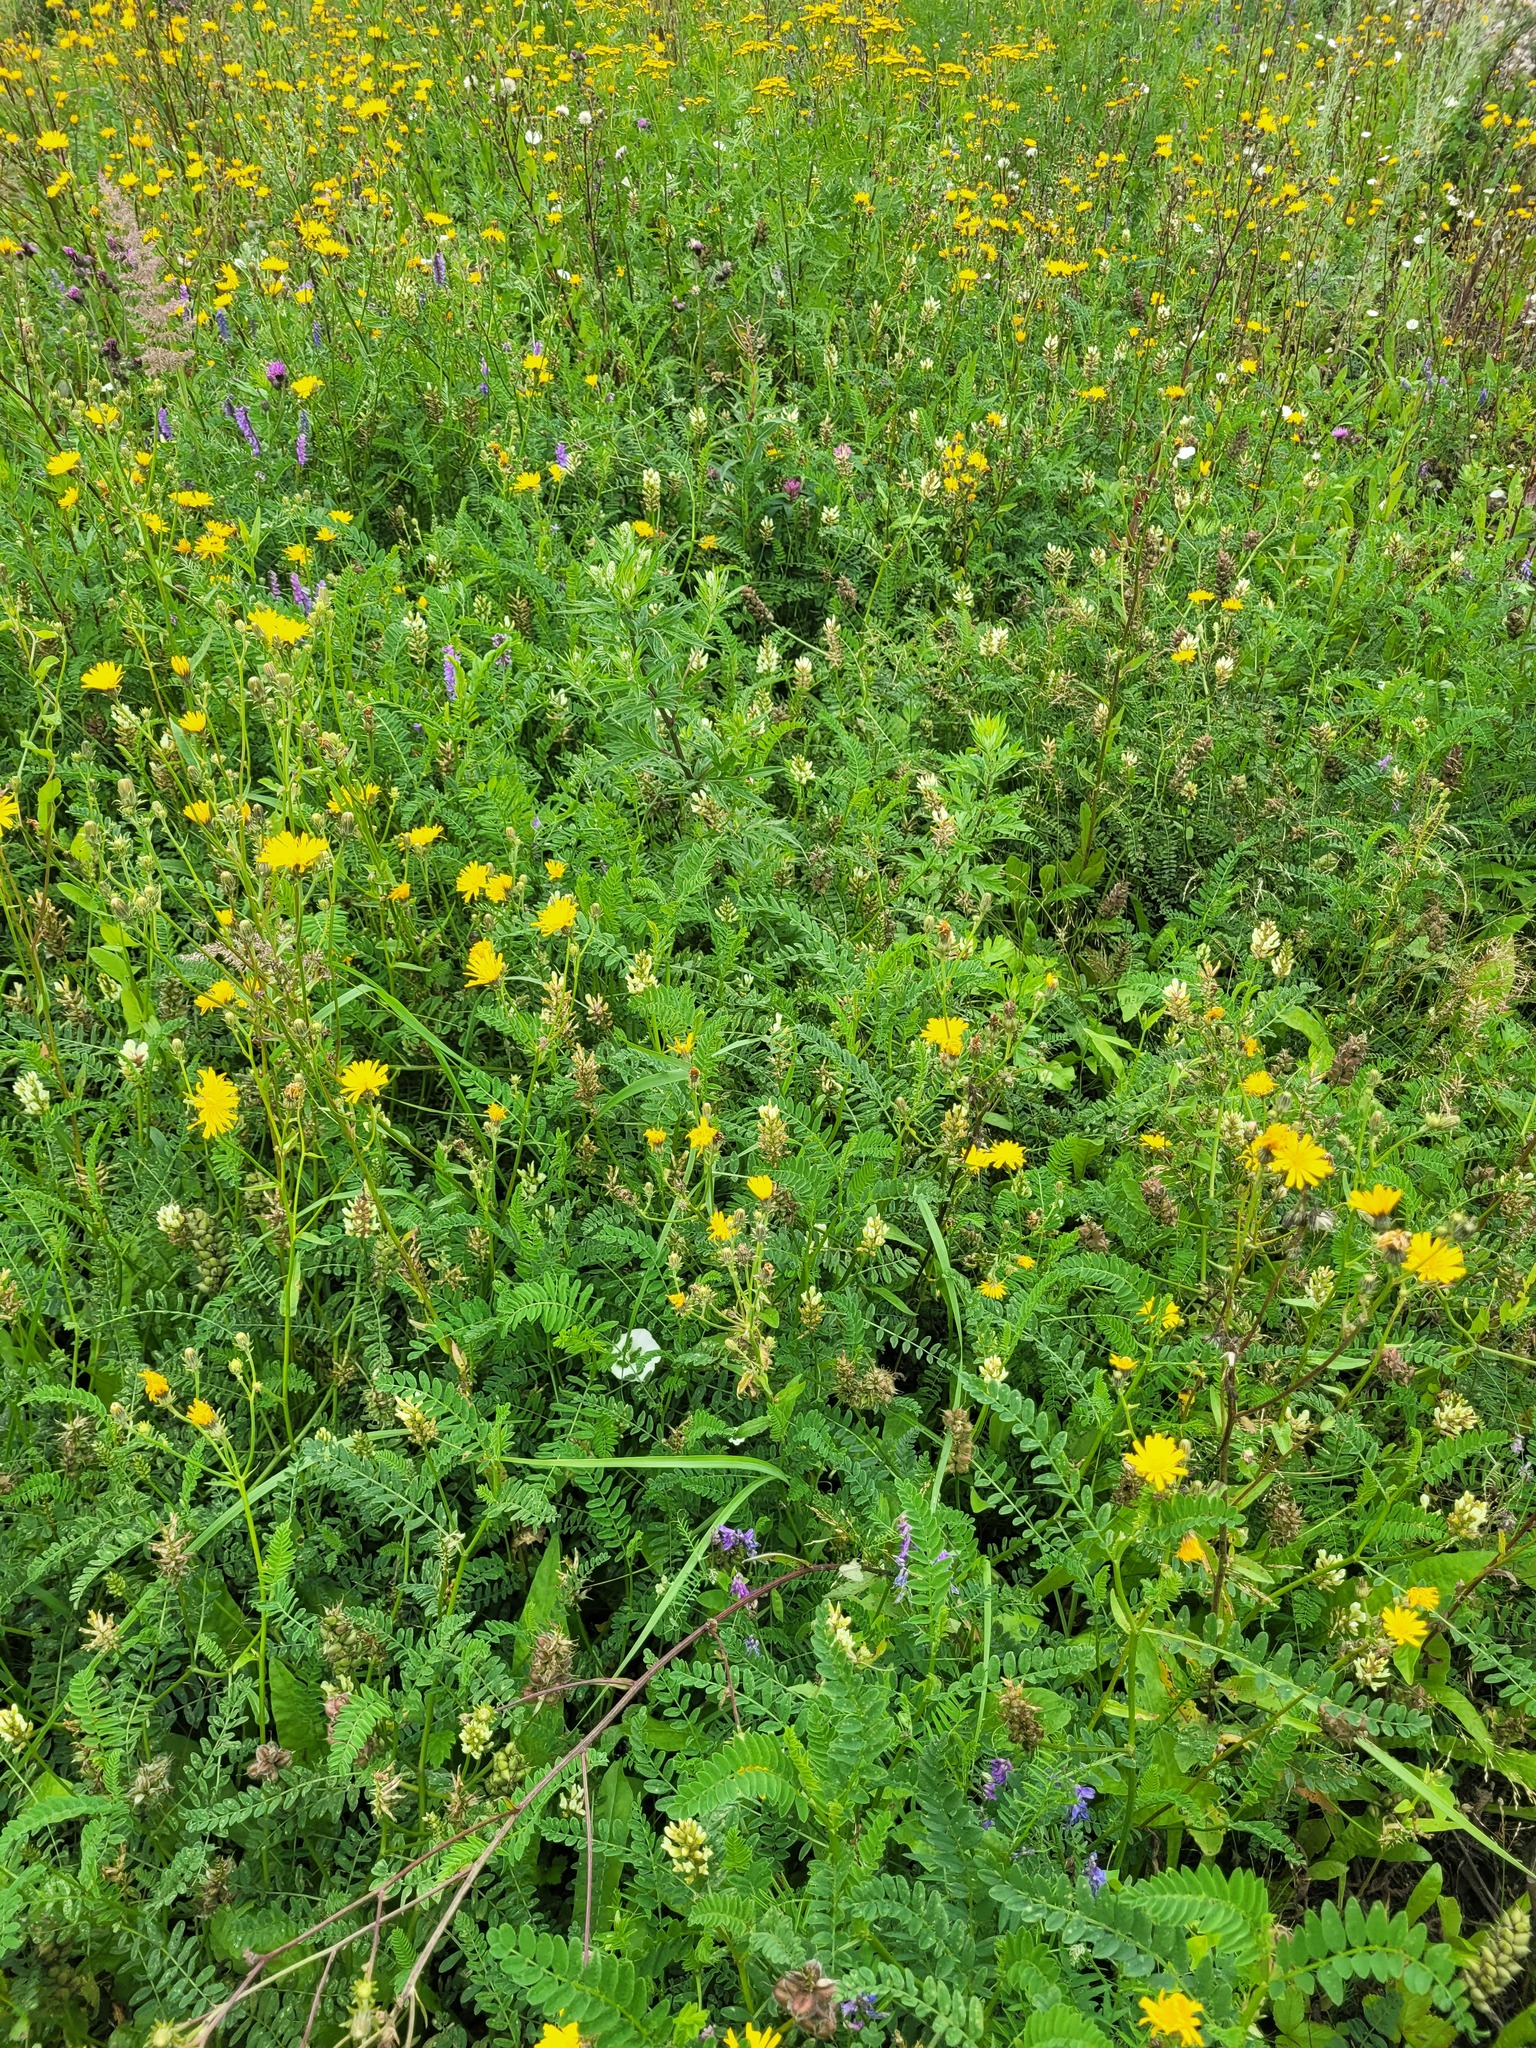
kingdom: Plantae
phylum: Tracheophyta
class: Magnoliopsida
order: Asterales
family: Asteraceae
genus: Picris
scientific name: Picris hieracioides
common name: Hawkweed oxtongue
